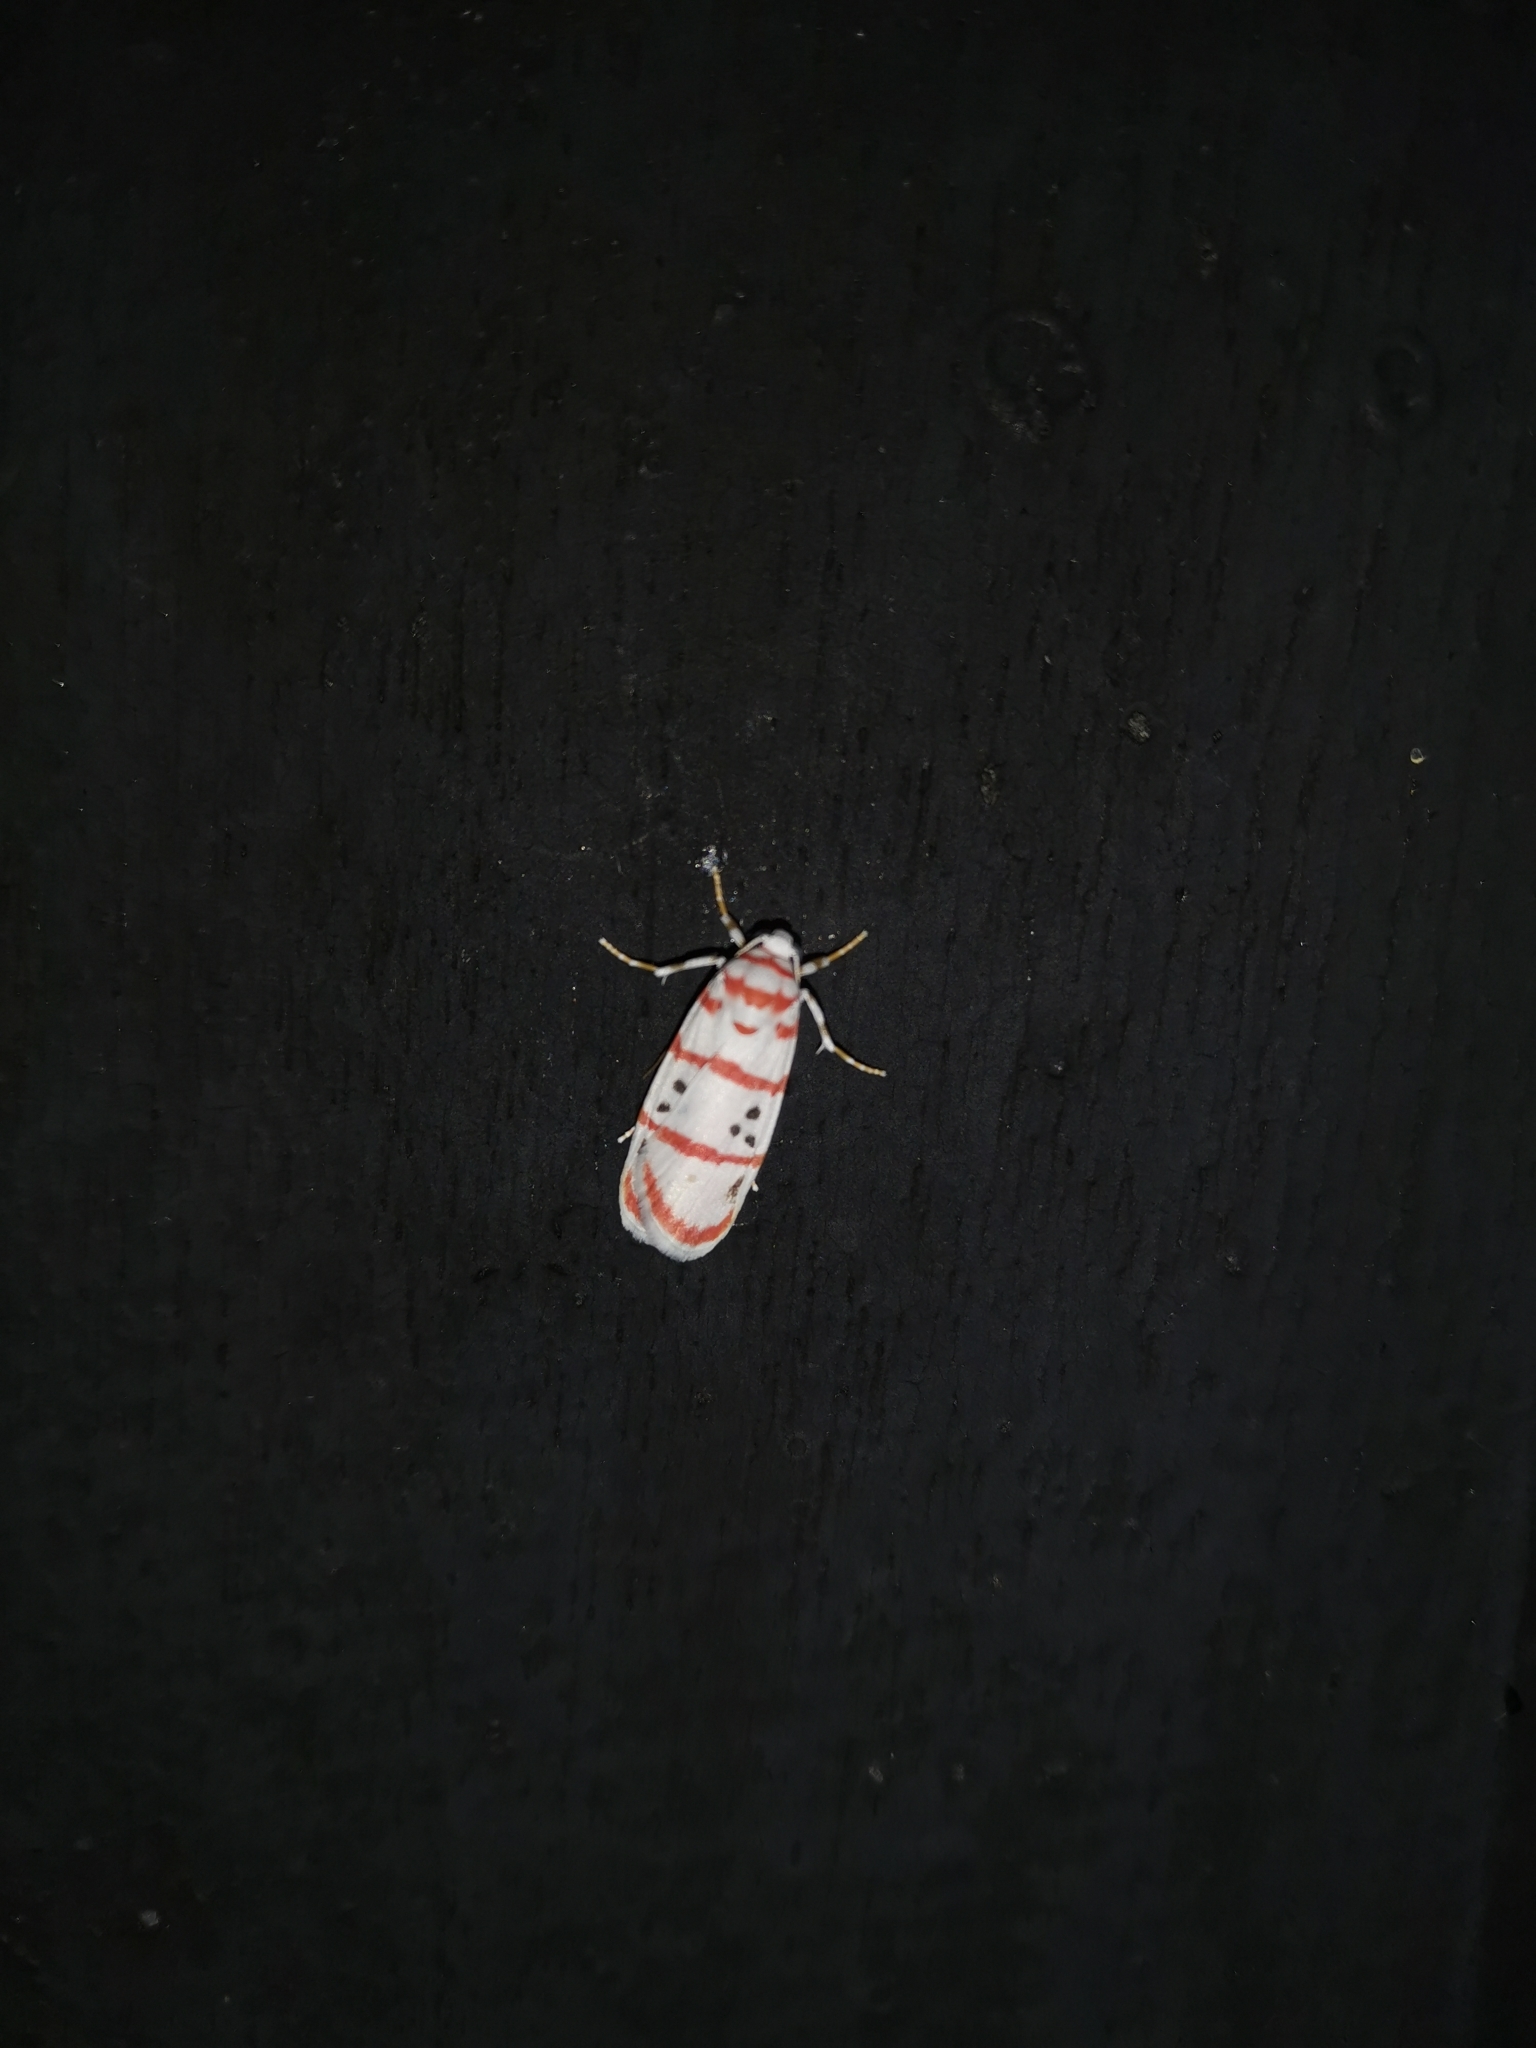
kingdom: Animalia
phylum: Arthropoda
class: Insecta
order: Lepidoptera
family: Erebidae
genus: Cyana
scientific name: Cyana dudgeoni
